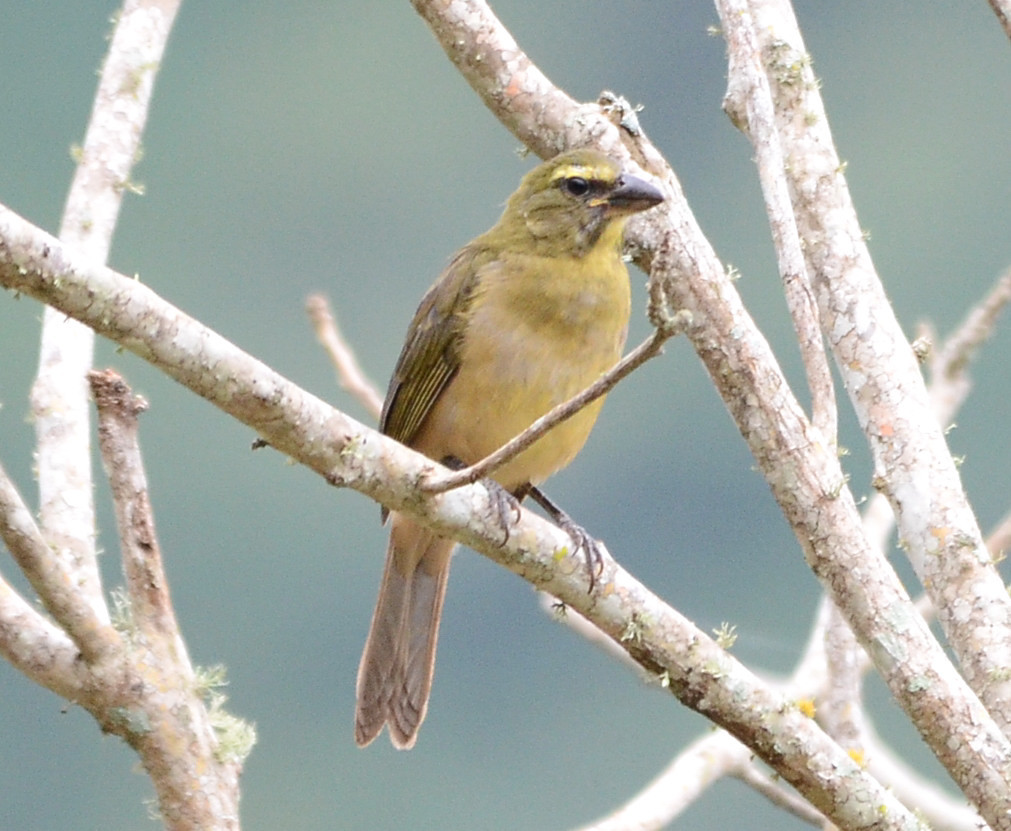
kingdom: Animalia
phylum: Chordata
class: Aves
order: Passeriformes
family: Thraupidae
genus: Saltator
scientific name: Saltator grandis
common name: Cinnamon-bellied saltator
